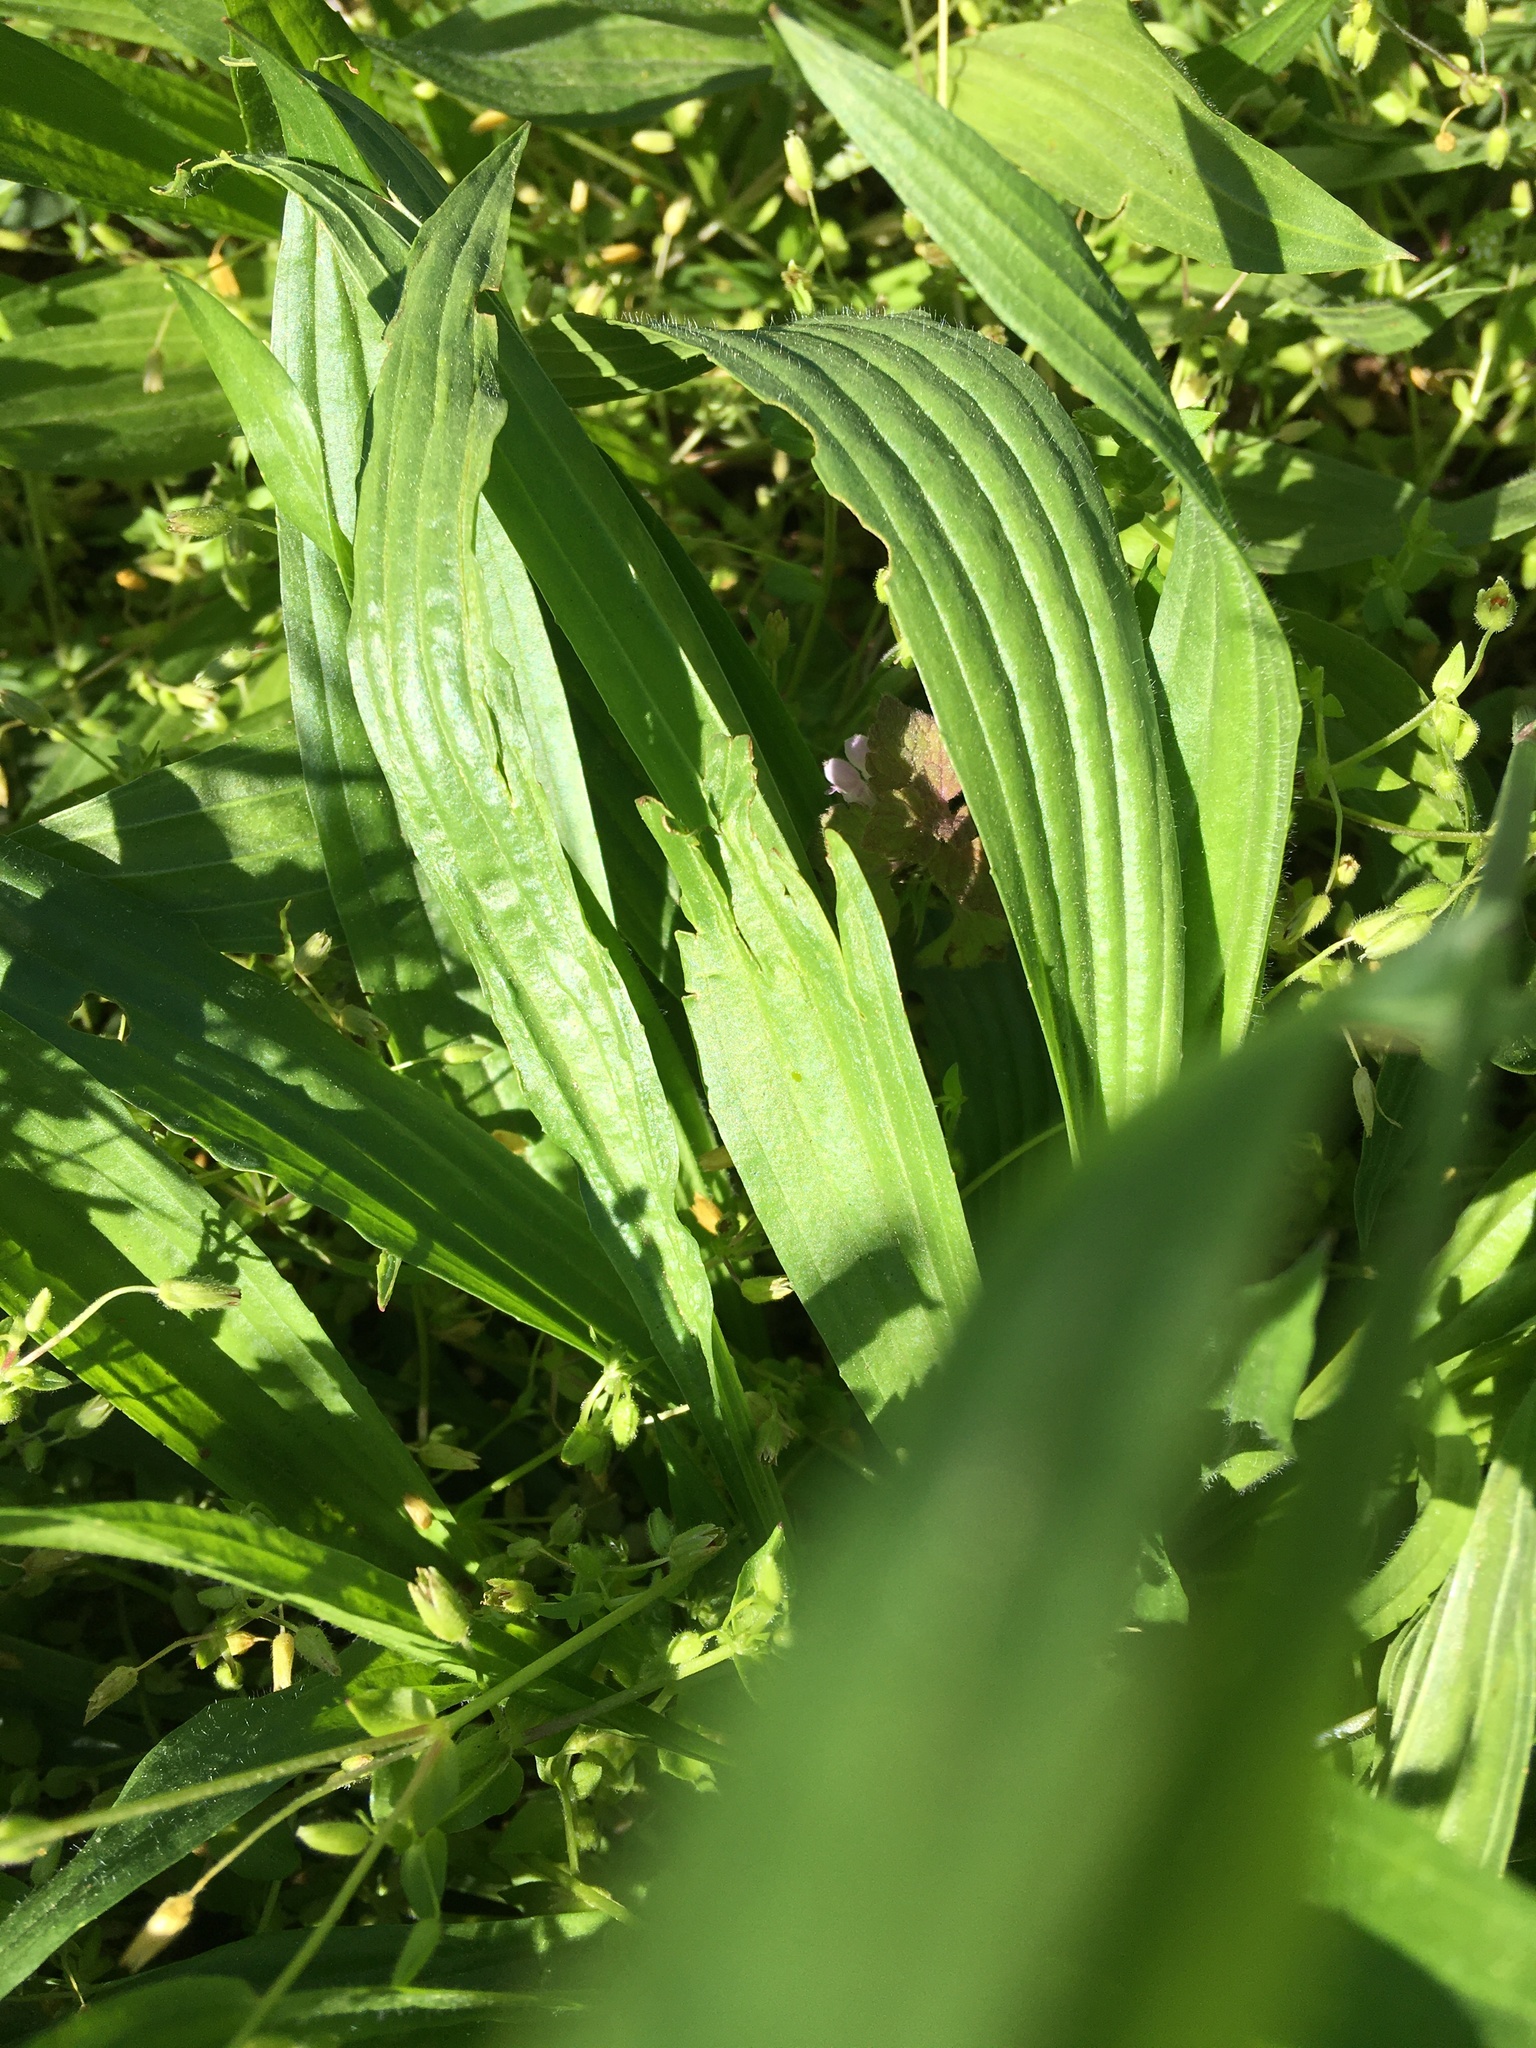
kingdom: Plantae
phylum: Tracheophyta
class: Magnoliopsida
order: Lamiales
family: Plantaginaceae
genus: Plantago
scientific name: Plantago lanceolata
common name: Ribwort plantain
